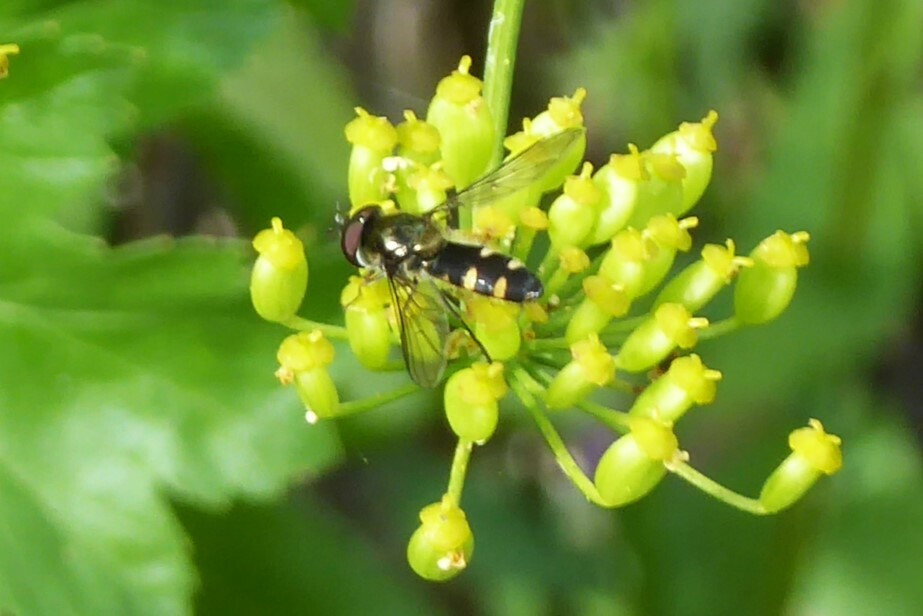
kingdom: Animalia
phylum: Arthropoda
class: Insecta
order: Diptera
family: Syrphidae
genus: Melangyna
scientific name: Melangyna novaezelandiae
